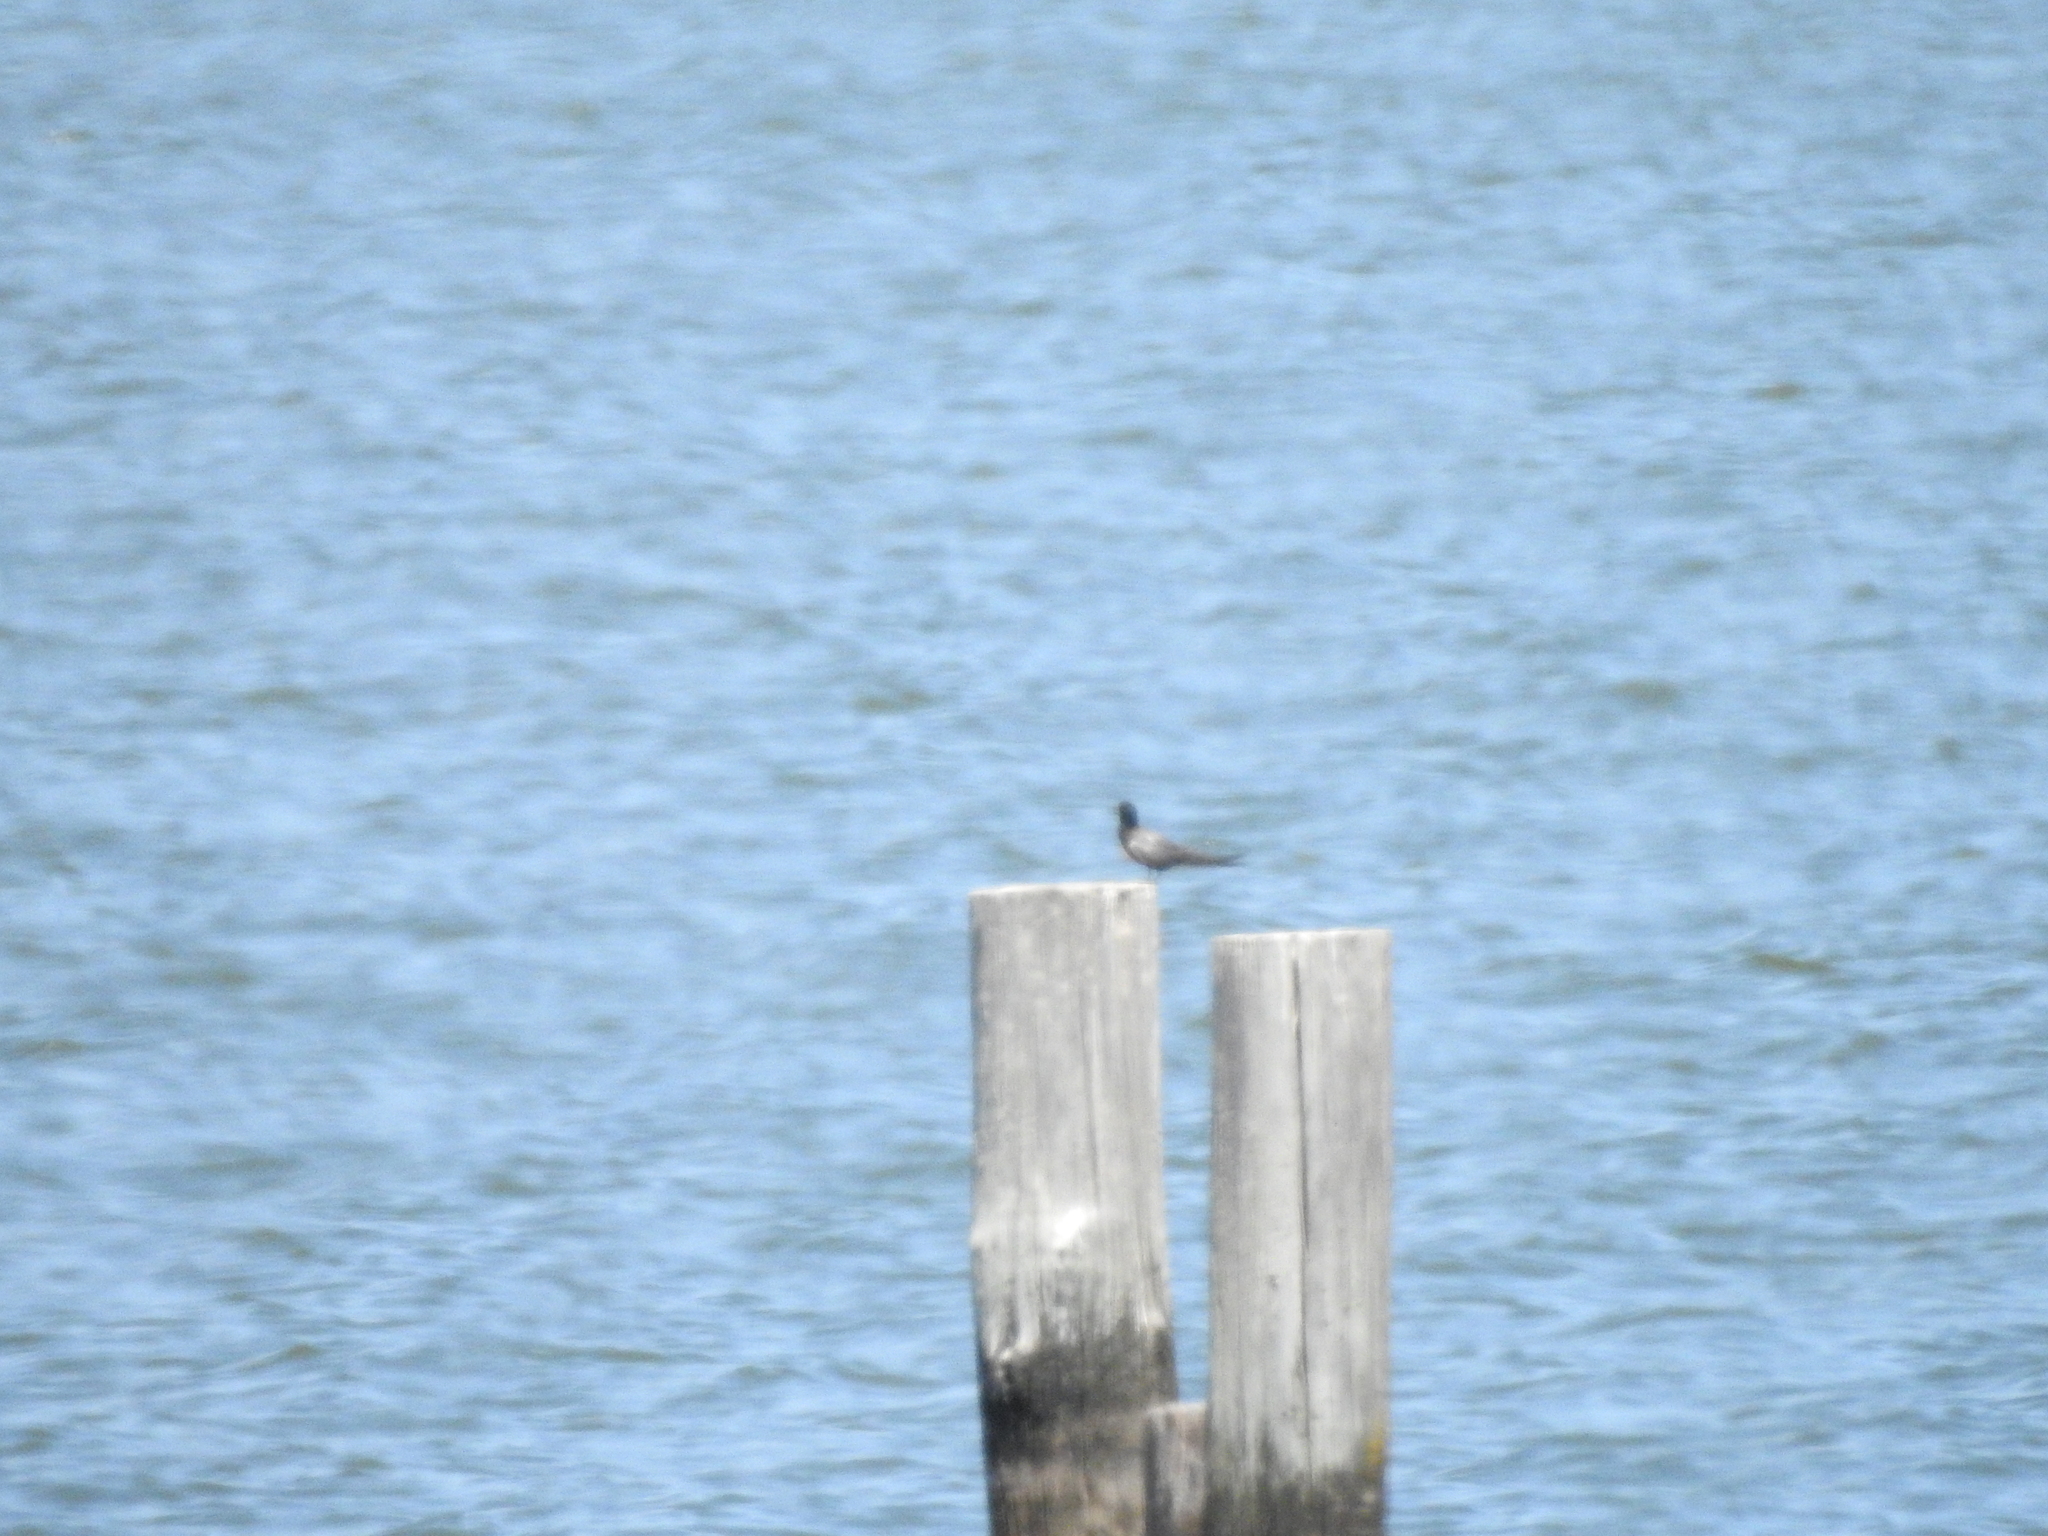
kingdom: Animalia
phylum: Chordata
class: Aves
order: Charadriiformes
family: Laridae
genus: Chlidonias
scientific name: Chlidonias niger
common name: Black tern
